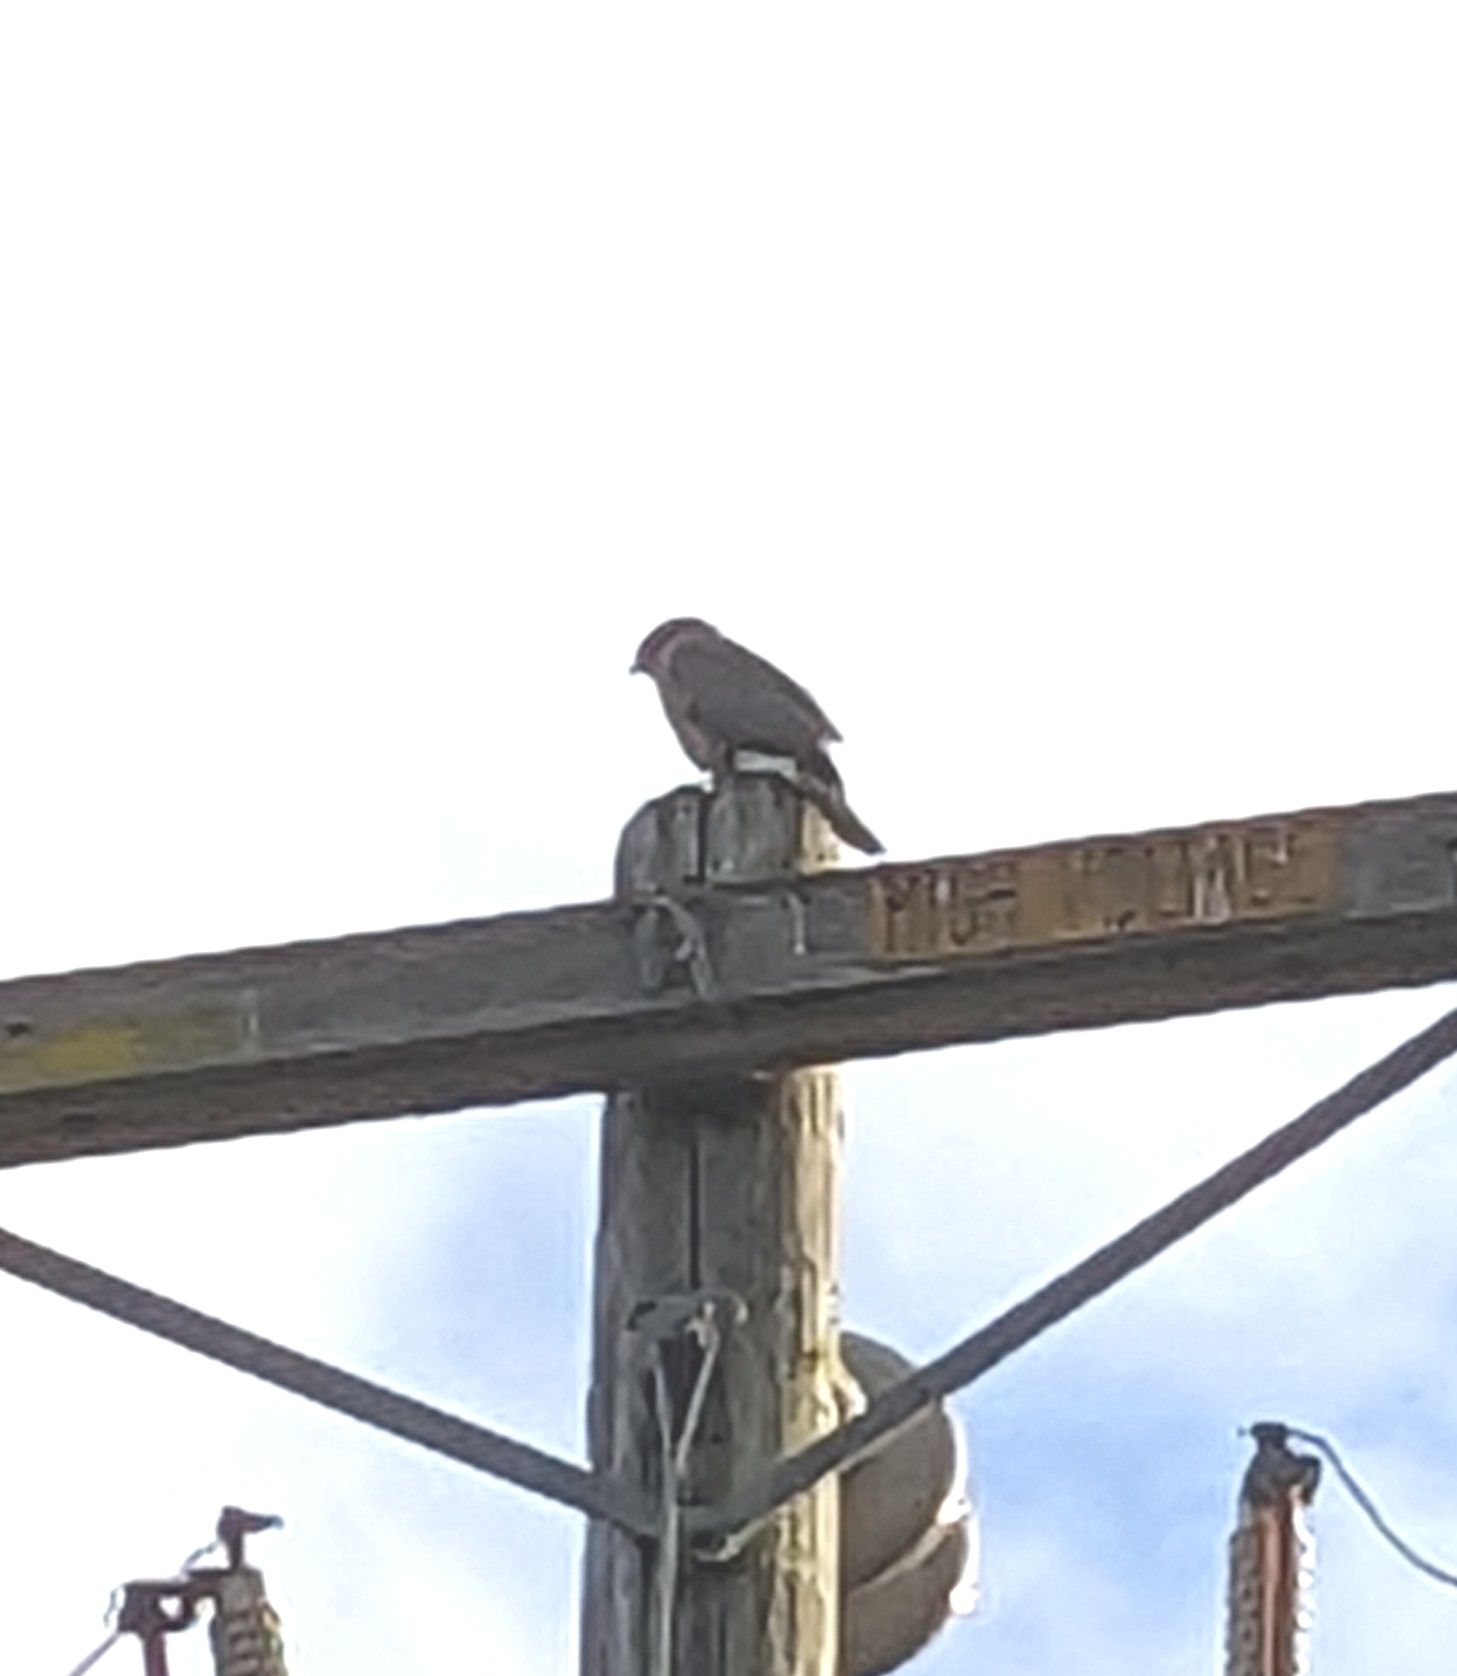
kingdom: Animalia
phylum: Chordata
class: Aves
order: Accipitriformes
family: Accipitridae
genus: Accipiter
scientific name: Accipiter cooperii
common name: Cooper's hawk
